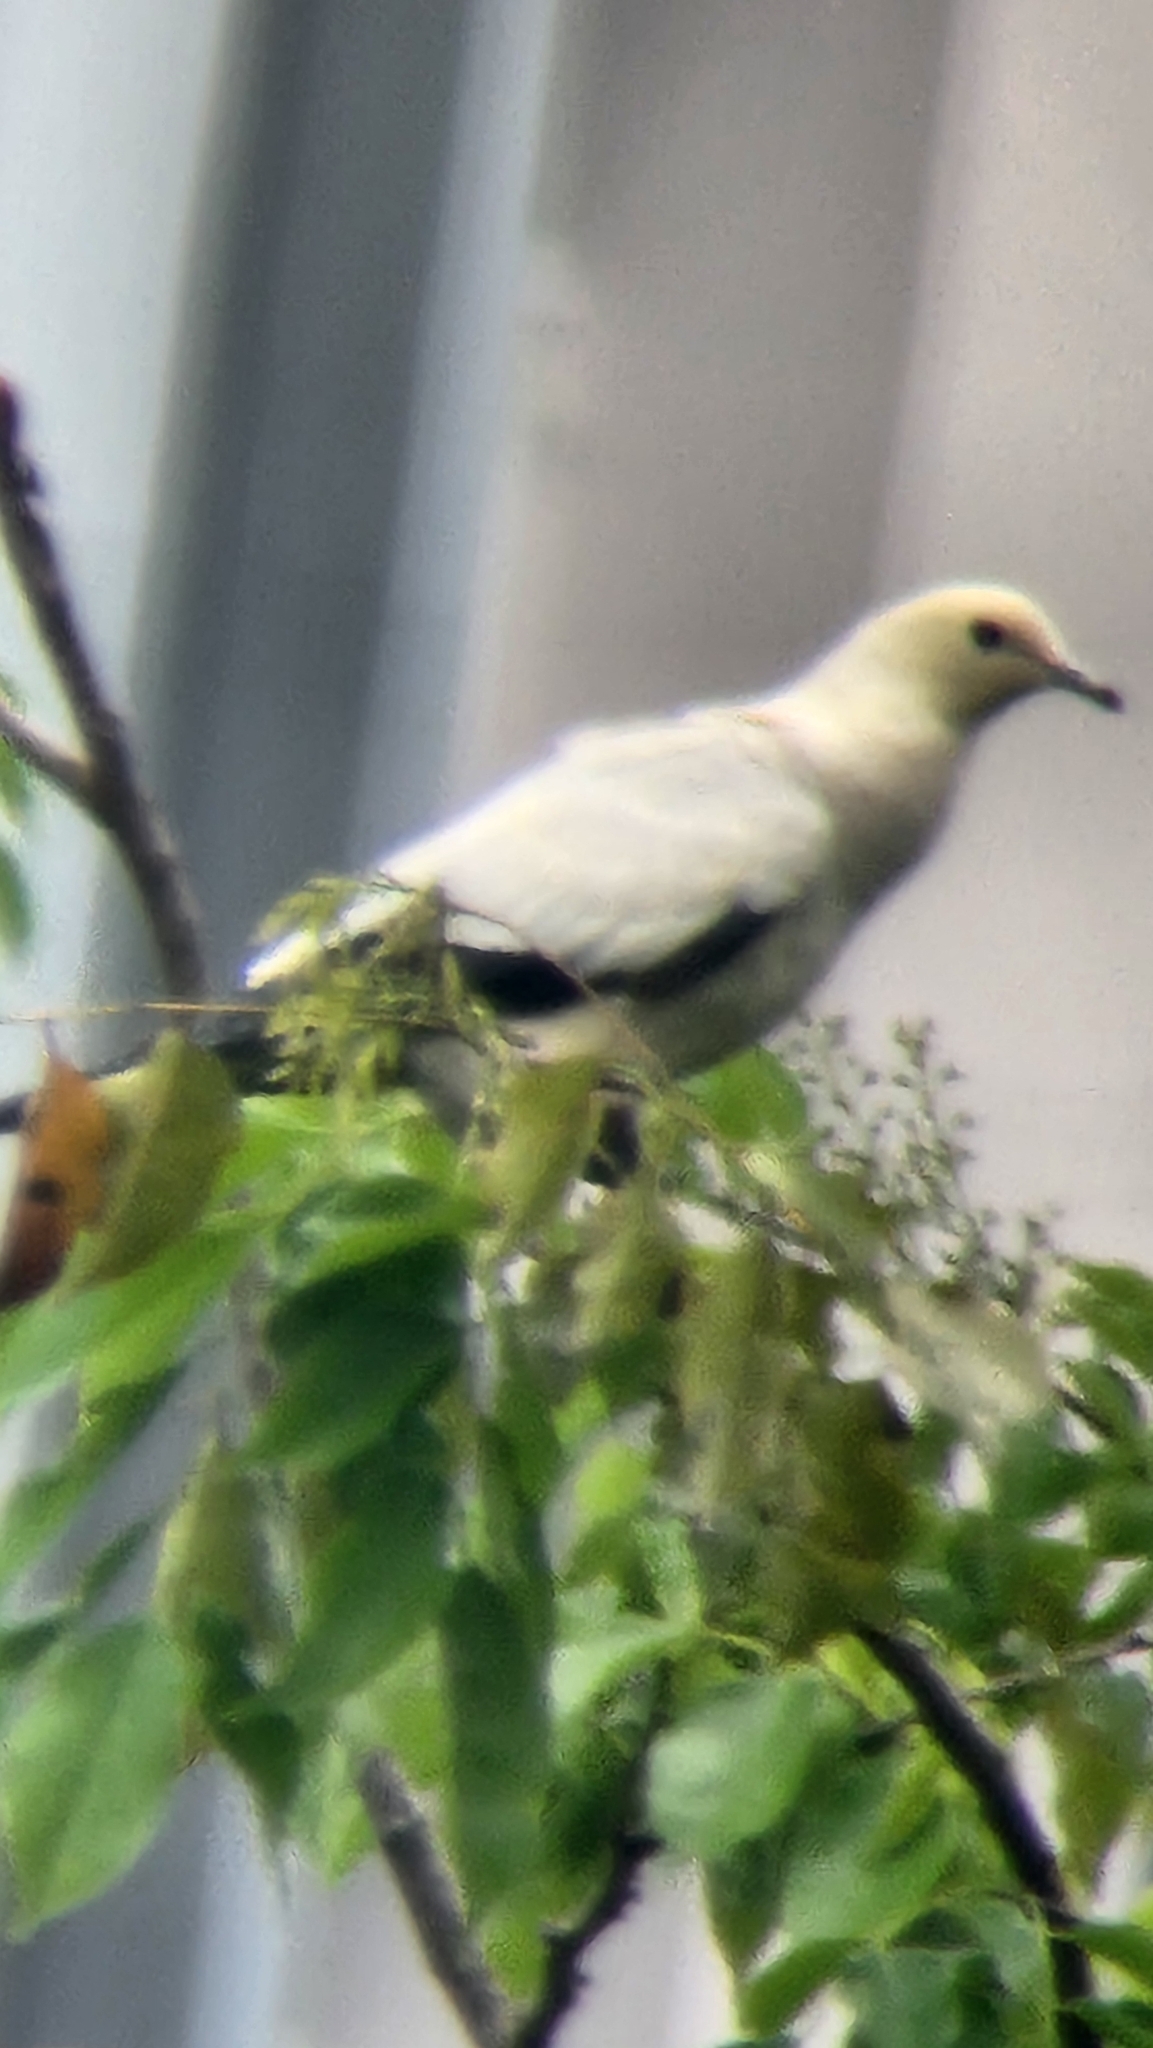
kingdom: Animalia
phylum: Chordata
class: Aves
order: Columbiformes
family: Columbidae
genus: Ducula
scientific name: Ducula bicolor
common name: Pied imperial pigeon
